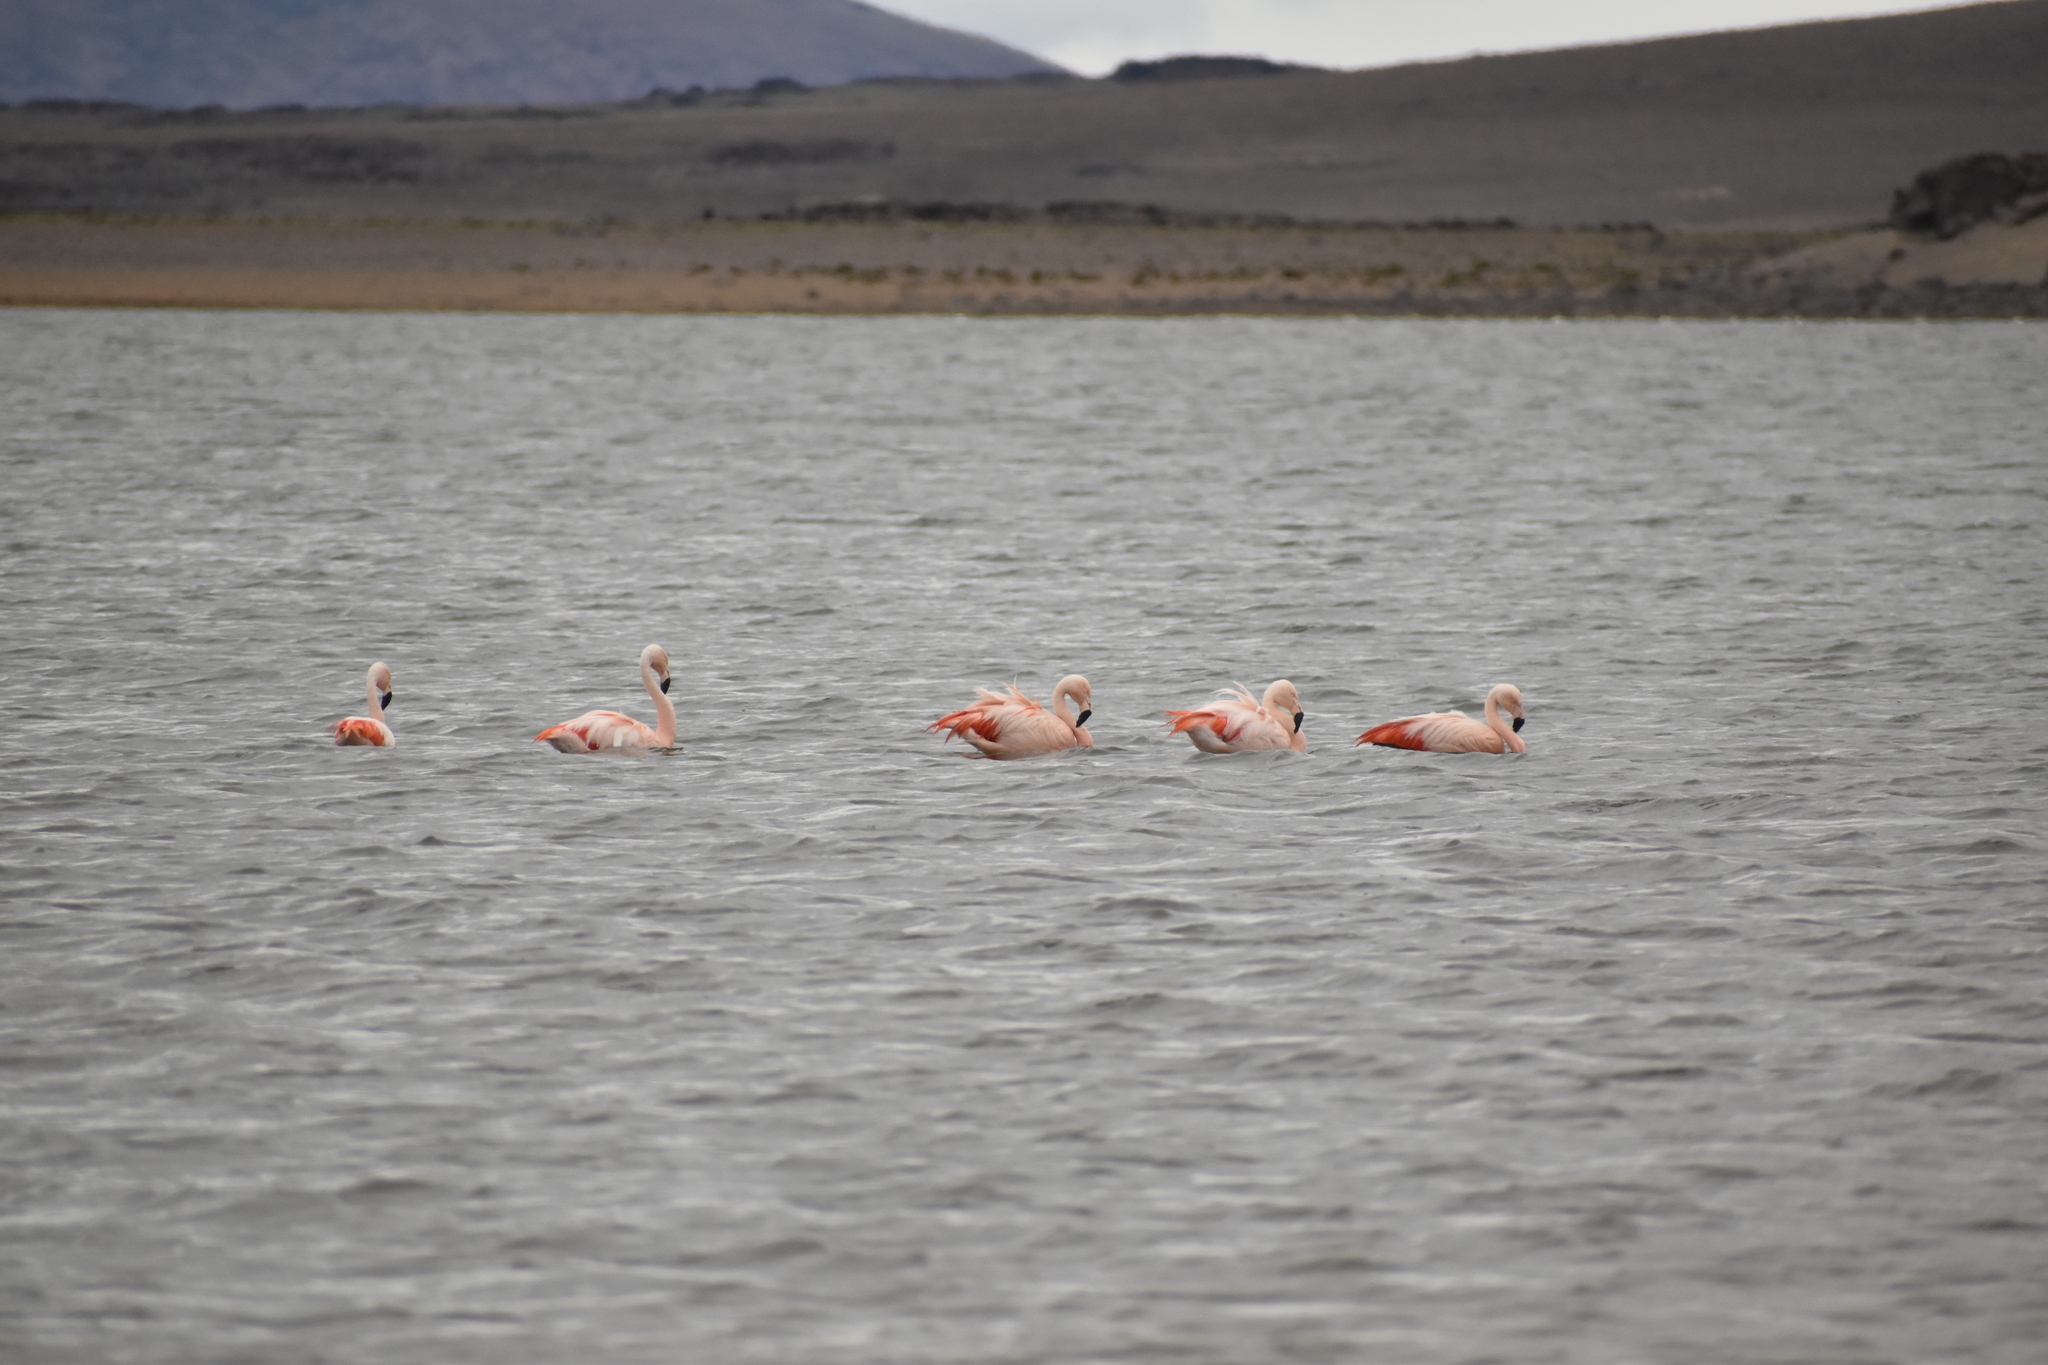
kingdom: Animalia
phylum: Chordata
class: Aves
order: Phoenicopteriformes
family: Phoenicopteridae
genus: Phoenicopterus
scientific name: Phoenicopterus chilensis
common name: Chilean flamingo
